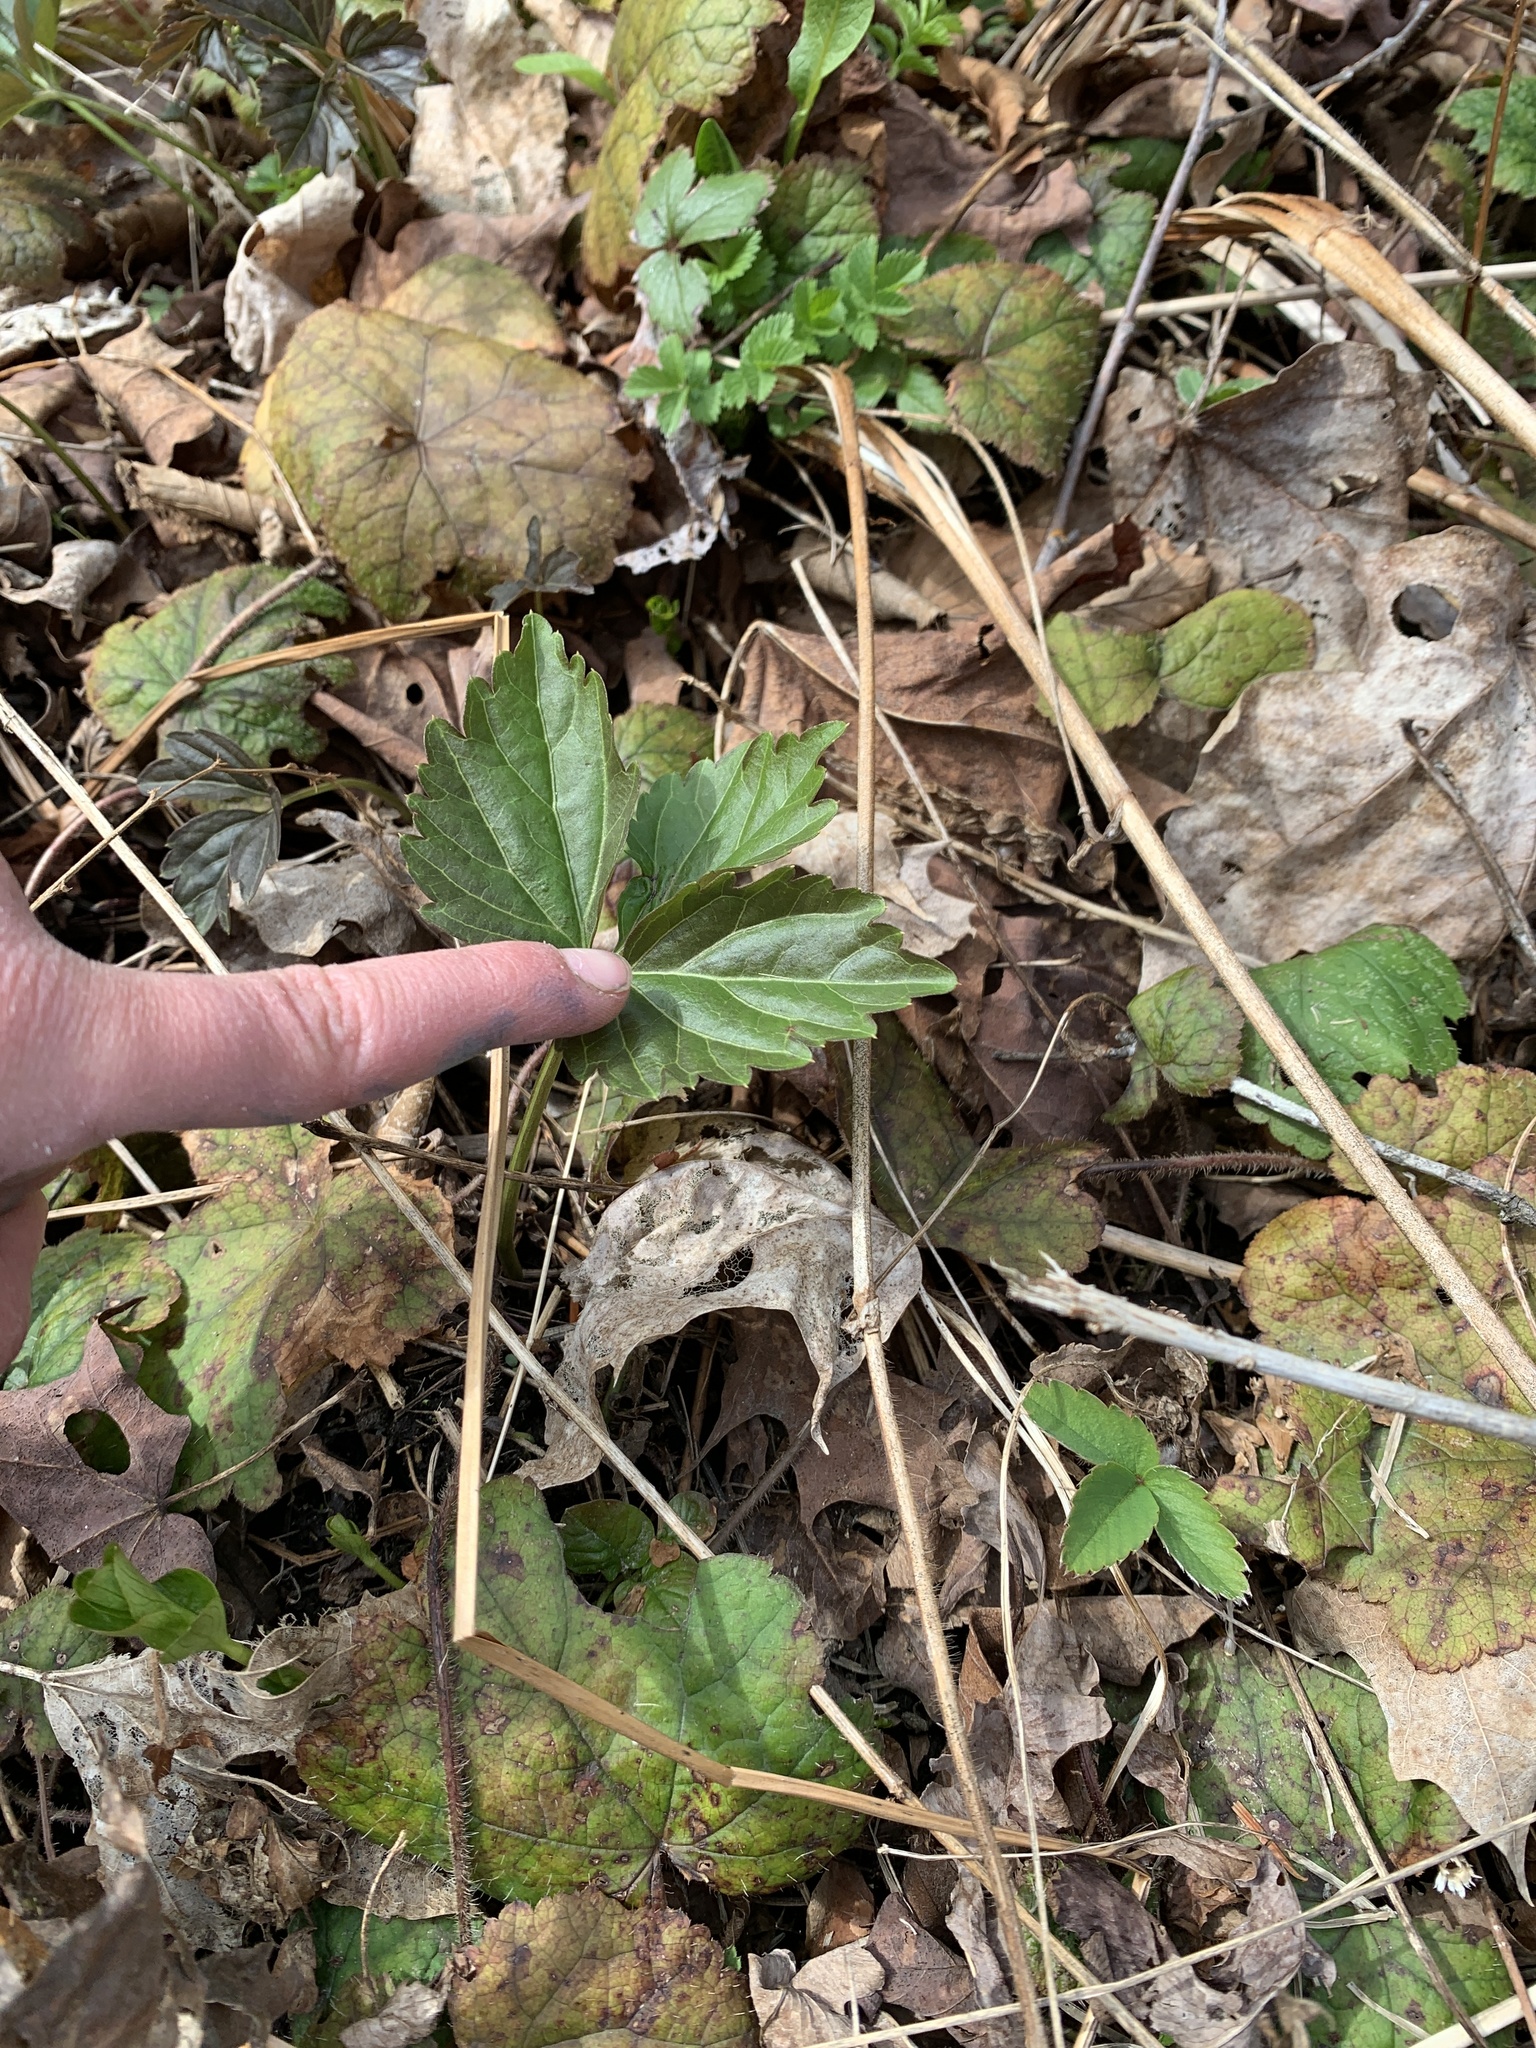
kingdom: Plantae
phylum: Tracheophyta
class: Magnoliopsida
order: Brassicales
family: Brassicaceae
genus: Cardamine
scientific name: Cardamine diphylla
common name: Broad-leaved toothwort
